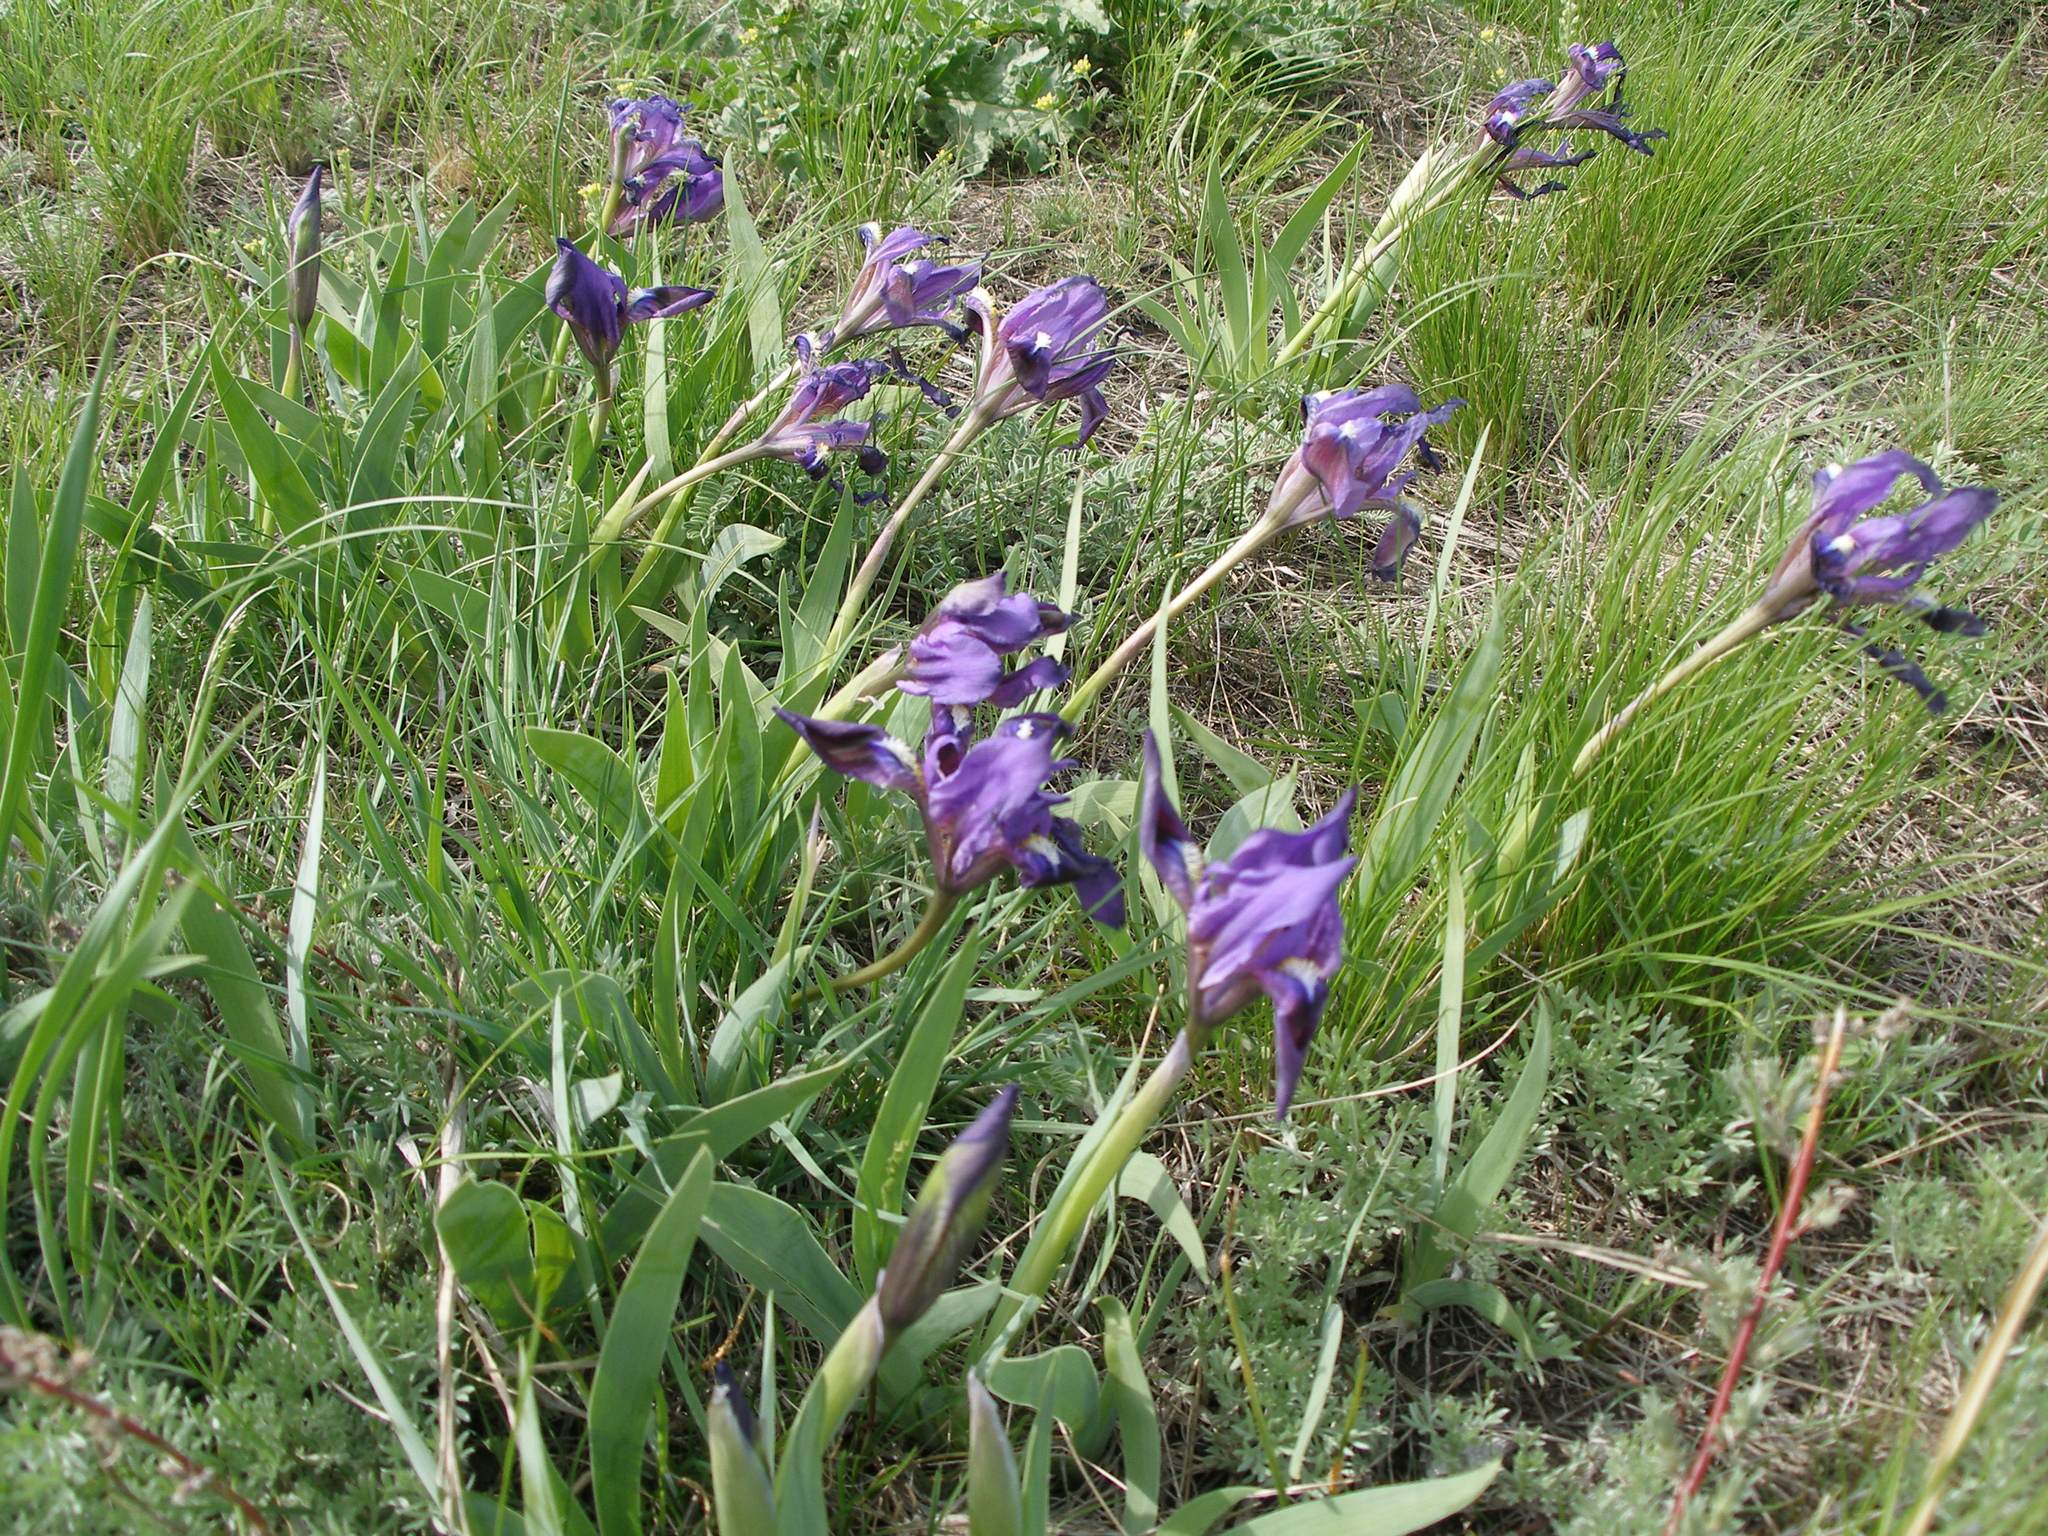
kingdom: Plantae
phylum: Tracheophyta
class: Liliopsida
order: Asparagales
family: Iridaceae
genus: Iris
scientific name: Iris pumila
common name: Dwarf iris
